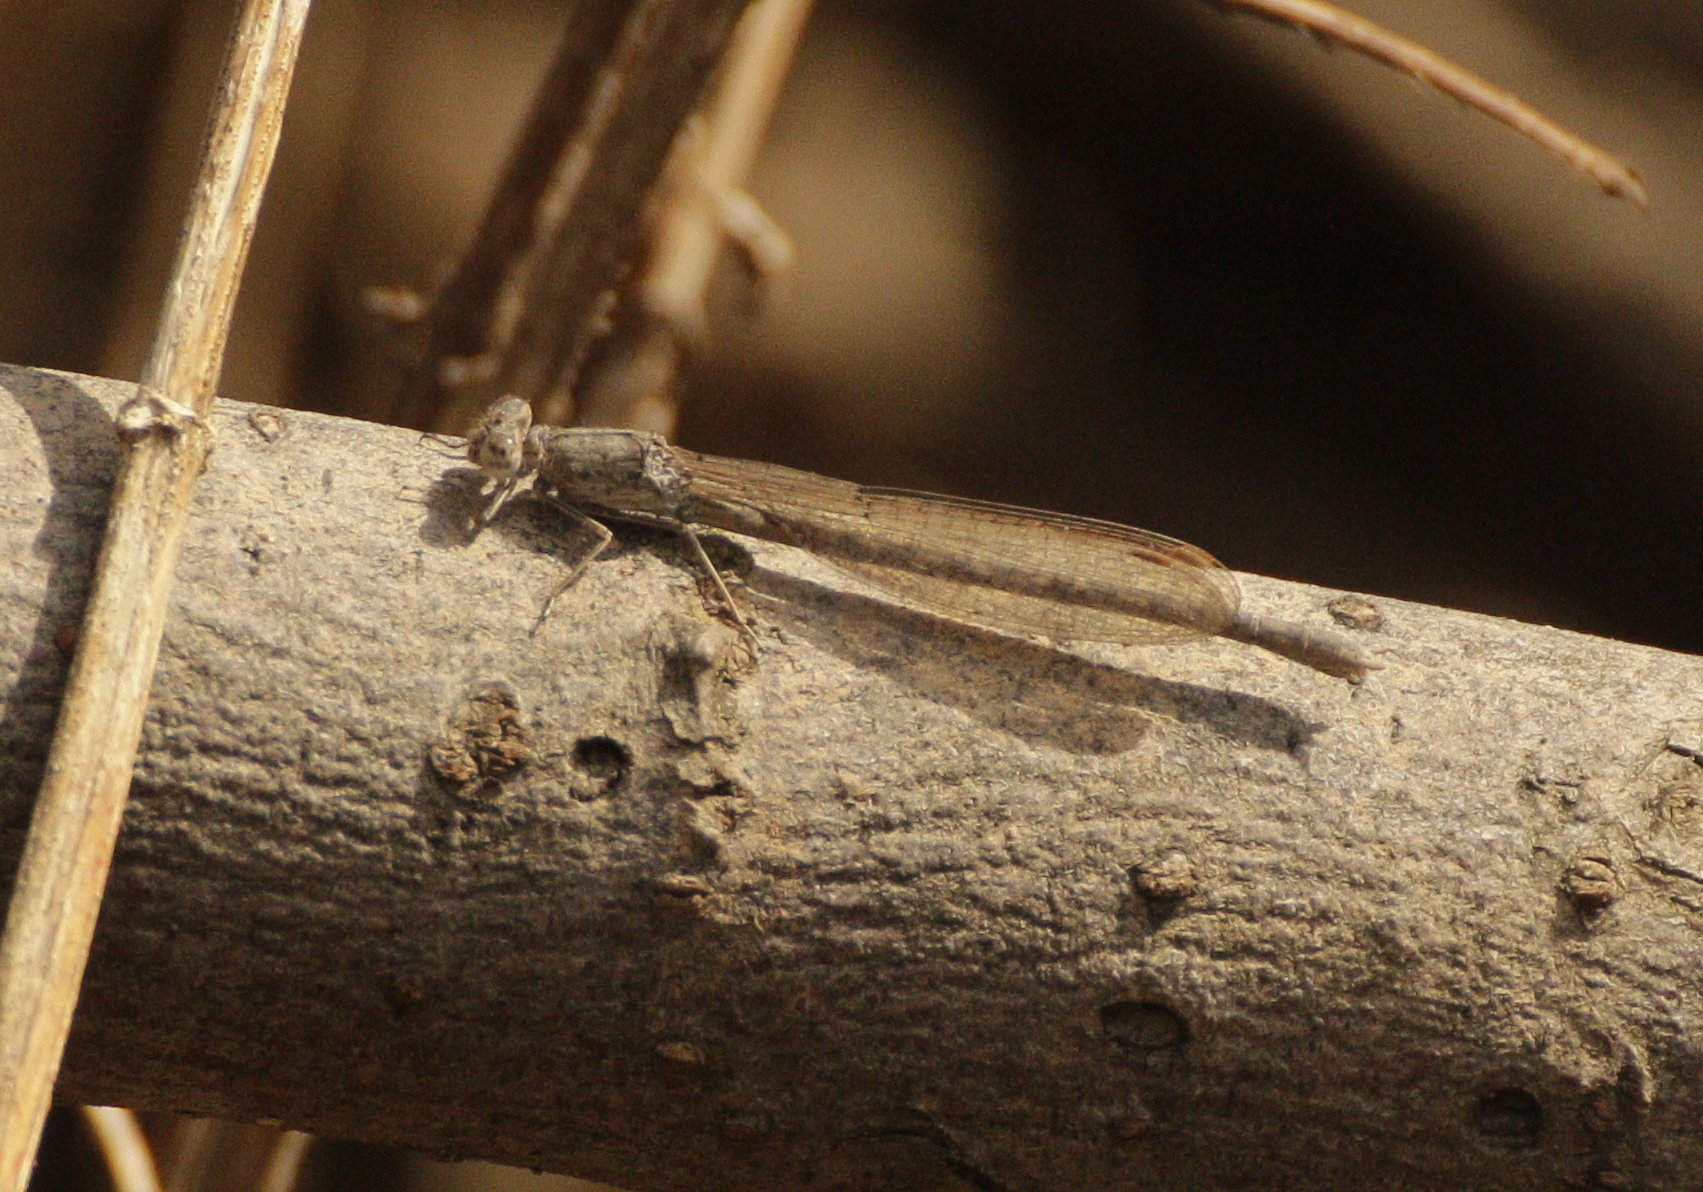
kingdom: Animalia
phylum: Arthropoda
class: Insecta
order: Odonata
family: Lestidae
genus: Sympecma
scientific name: Sympecma paedisca
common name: Siberian winter damsel
